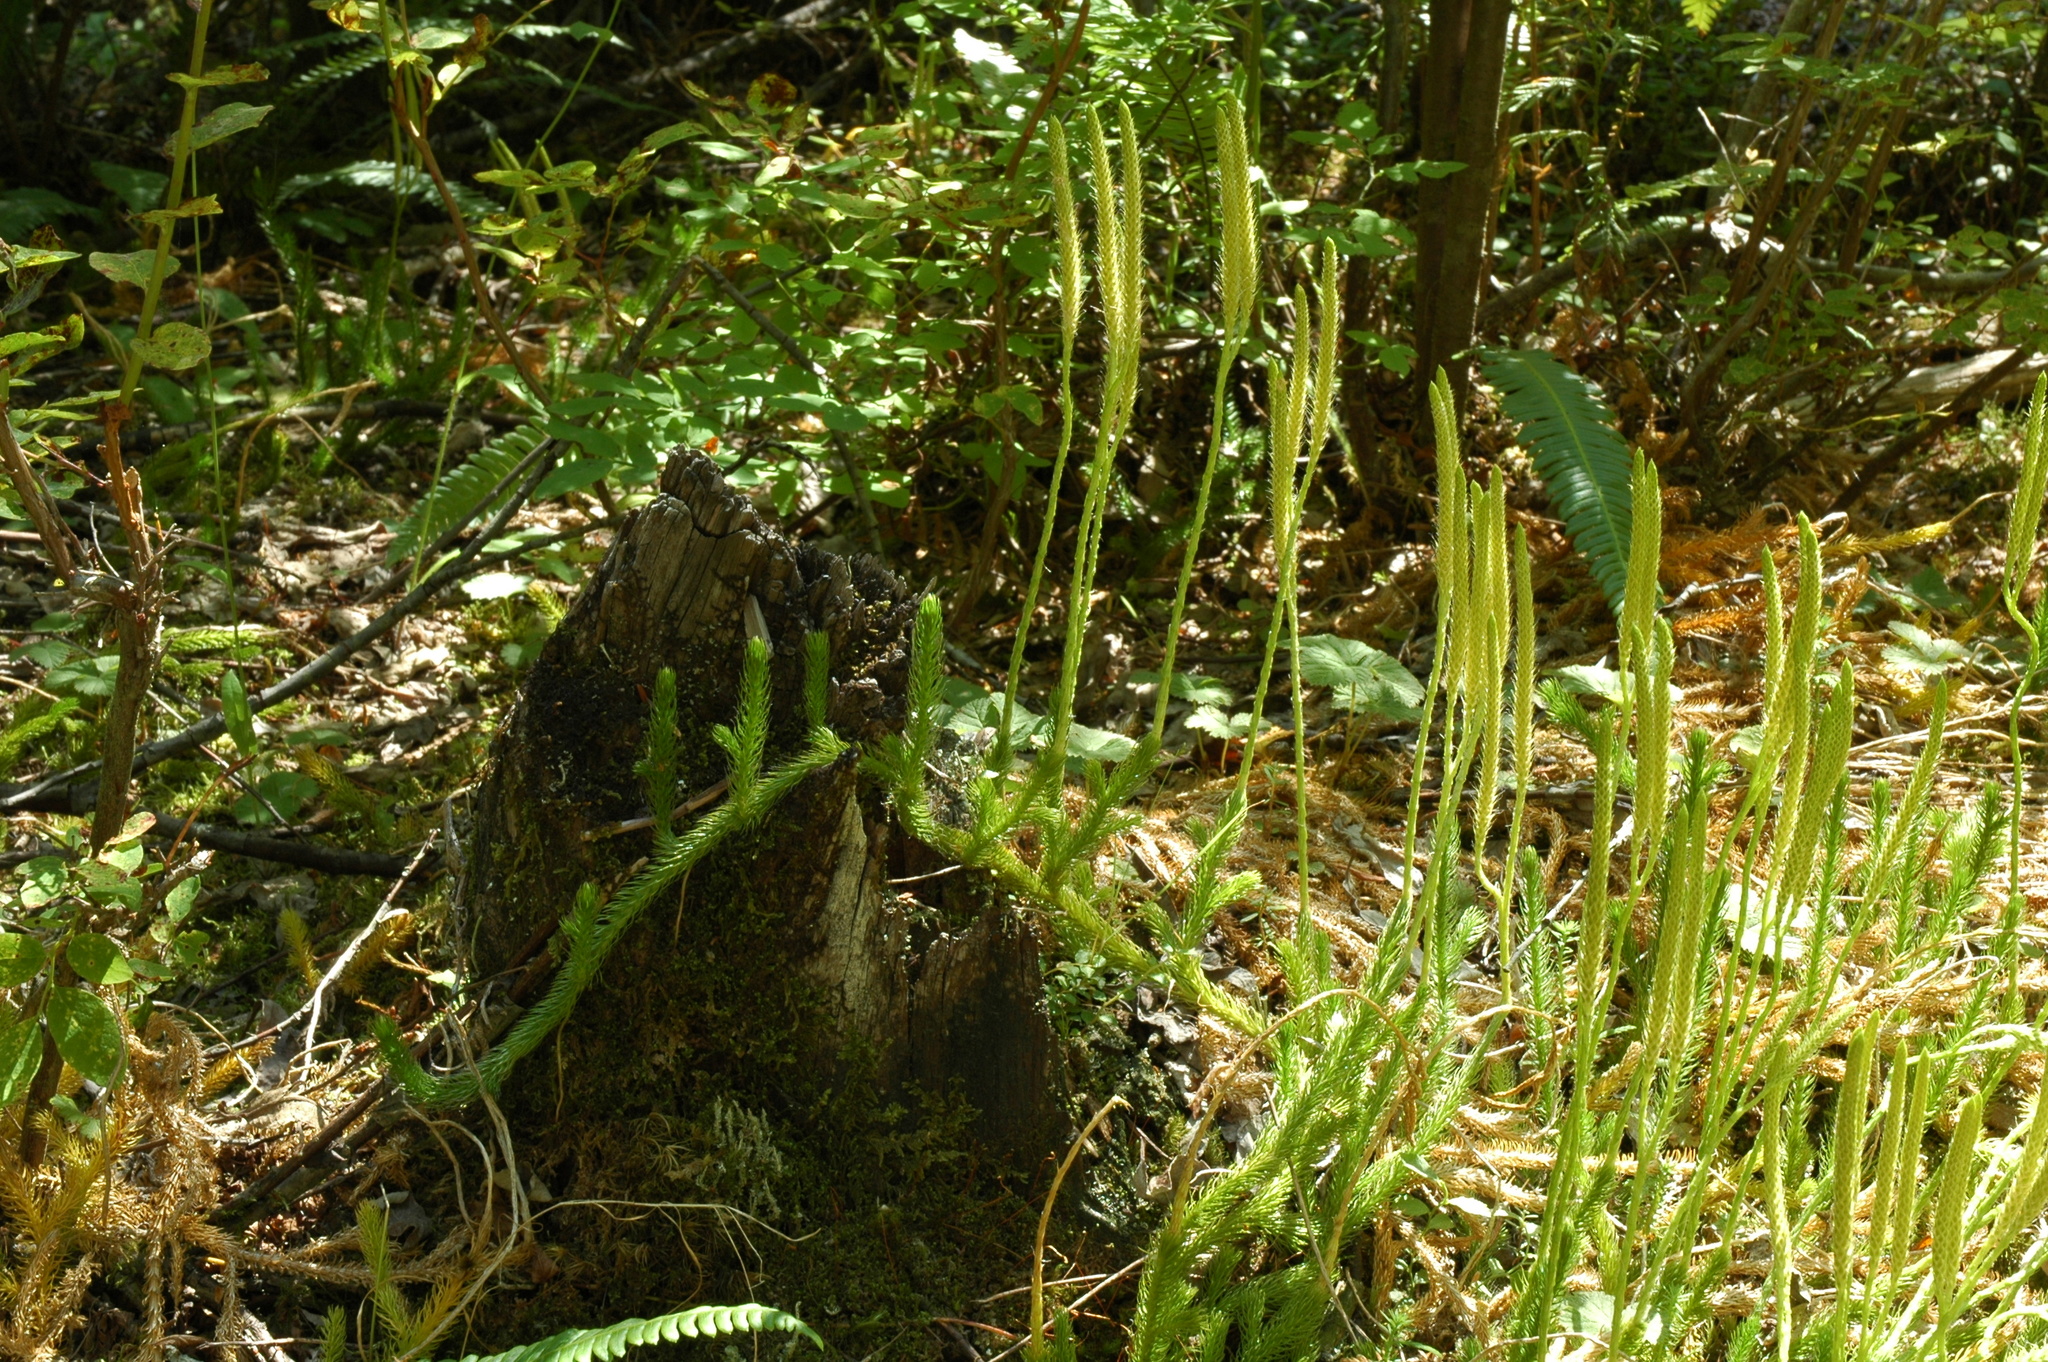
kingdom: Plantae
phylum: Tracheophyta
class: Lycopodiopsida
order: Lycopodiales
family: Lycopodiaceae
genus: Lycopodium
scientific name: Lycopodium clavatum
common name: Stag's-horn clubmoss
